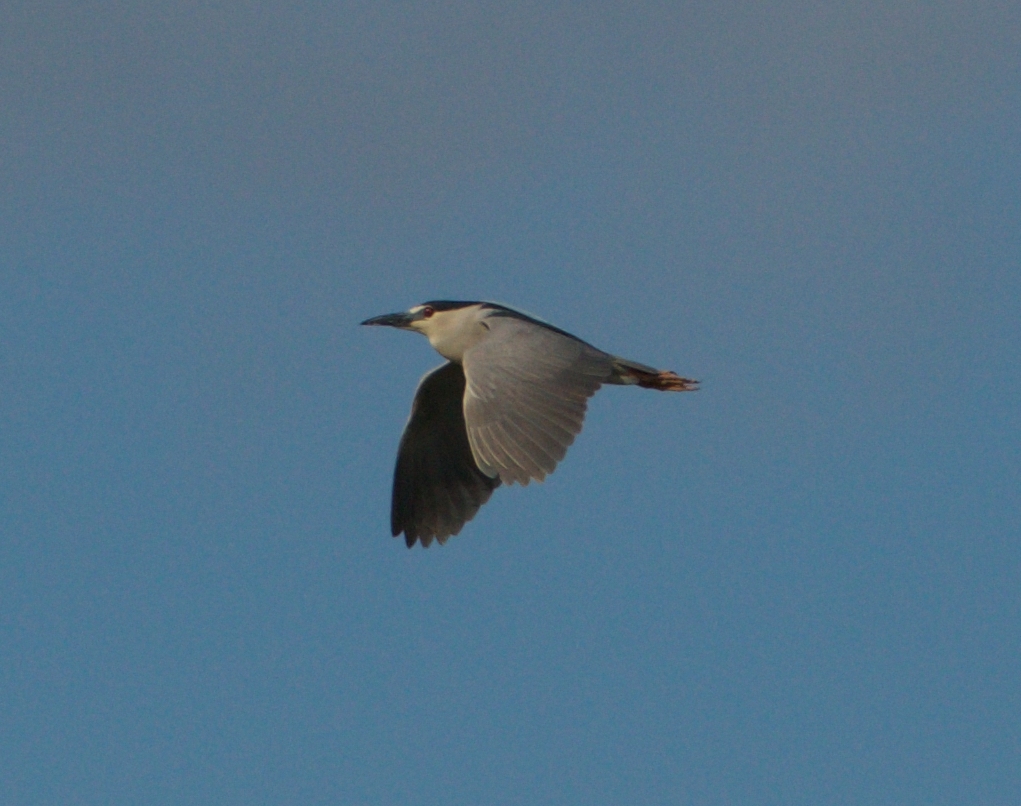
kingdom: Animalia
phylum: Chordata
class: Aves
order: Pelecaniformes
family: Ardeidae
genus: Nycticorax
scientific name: Nycticorax nycticorax
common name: Black-crowned night heron
